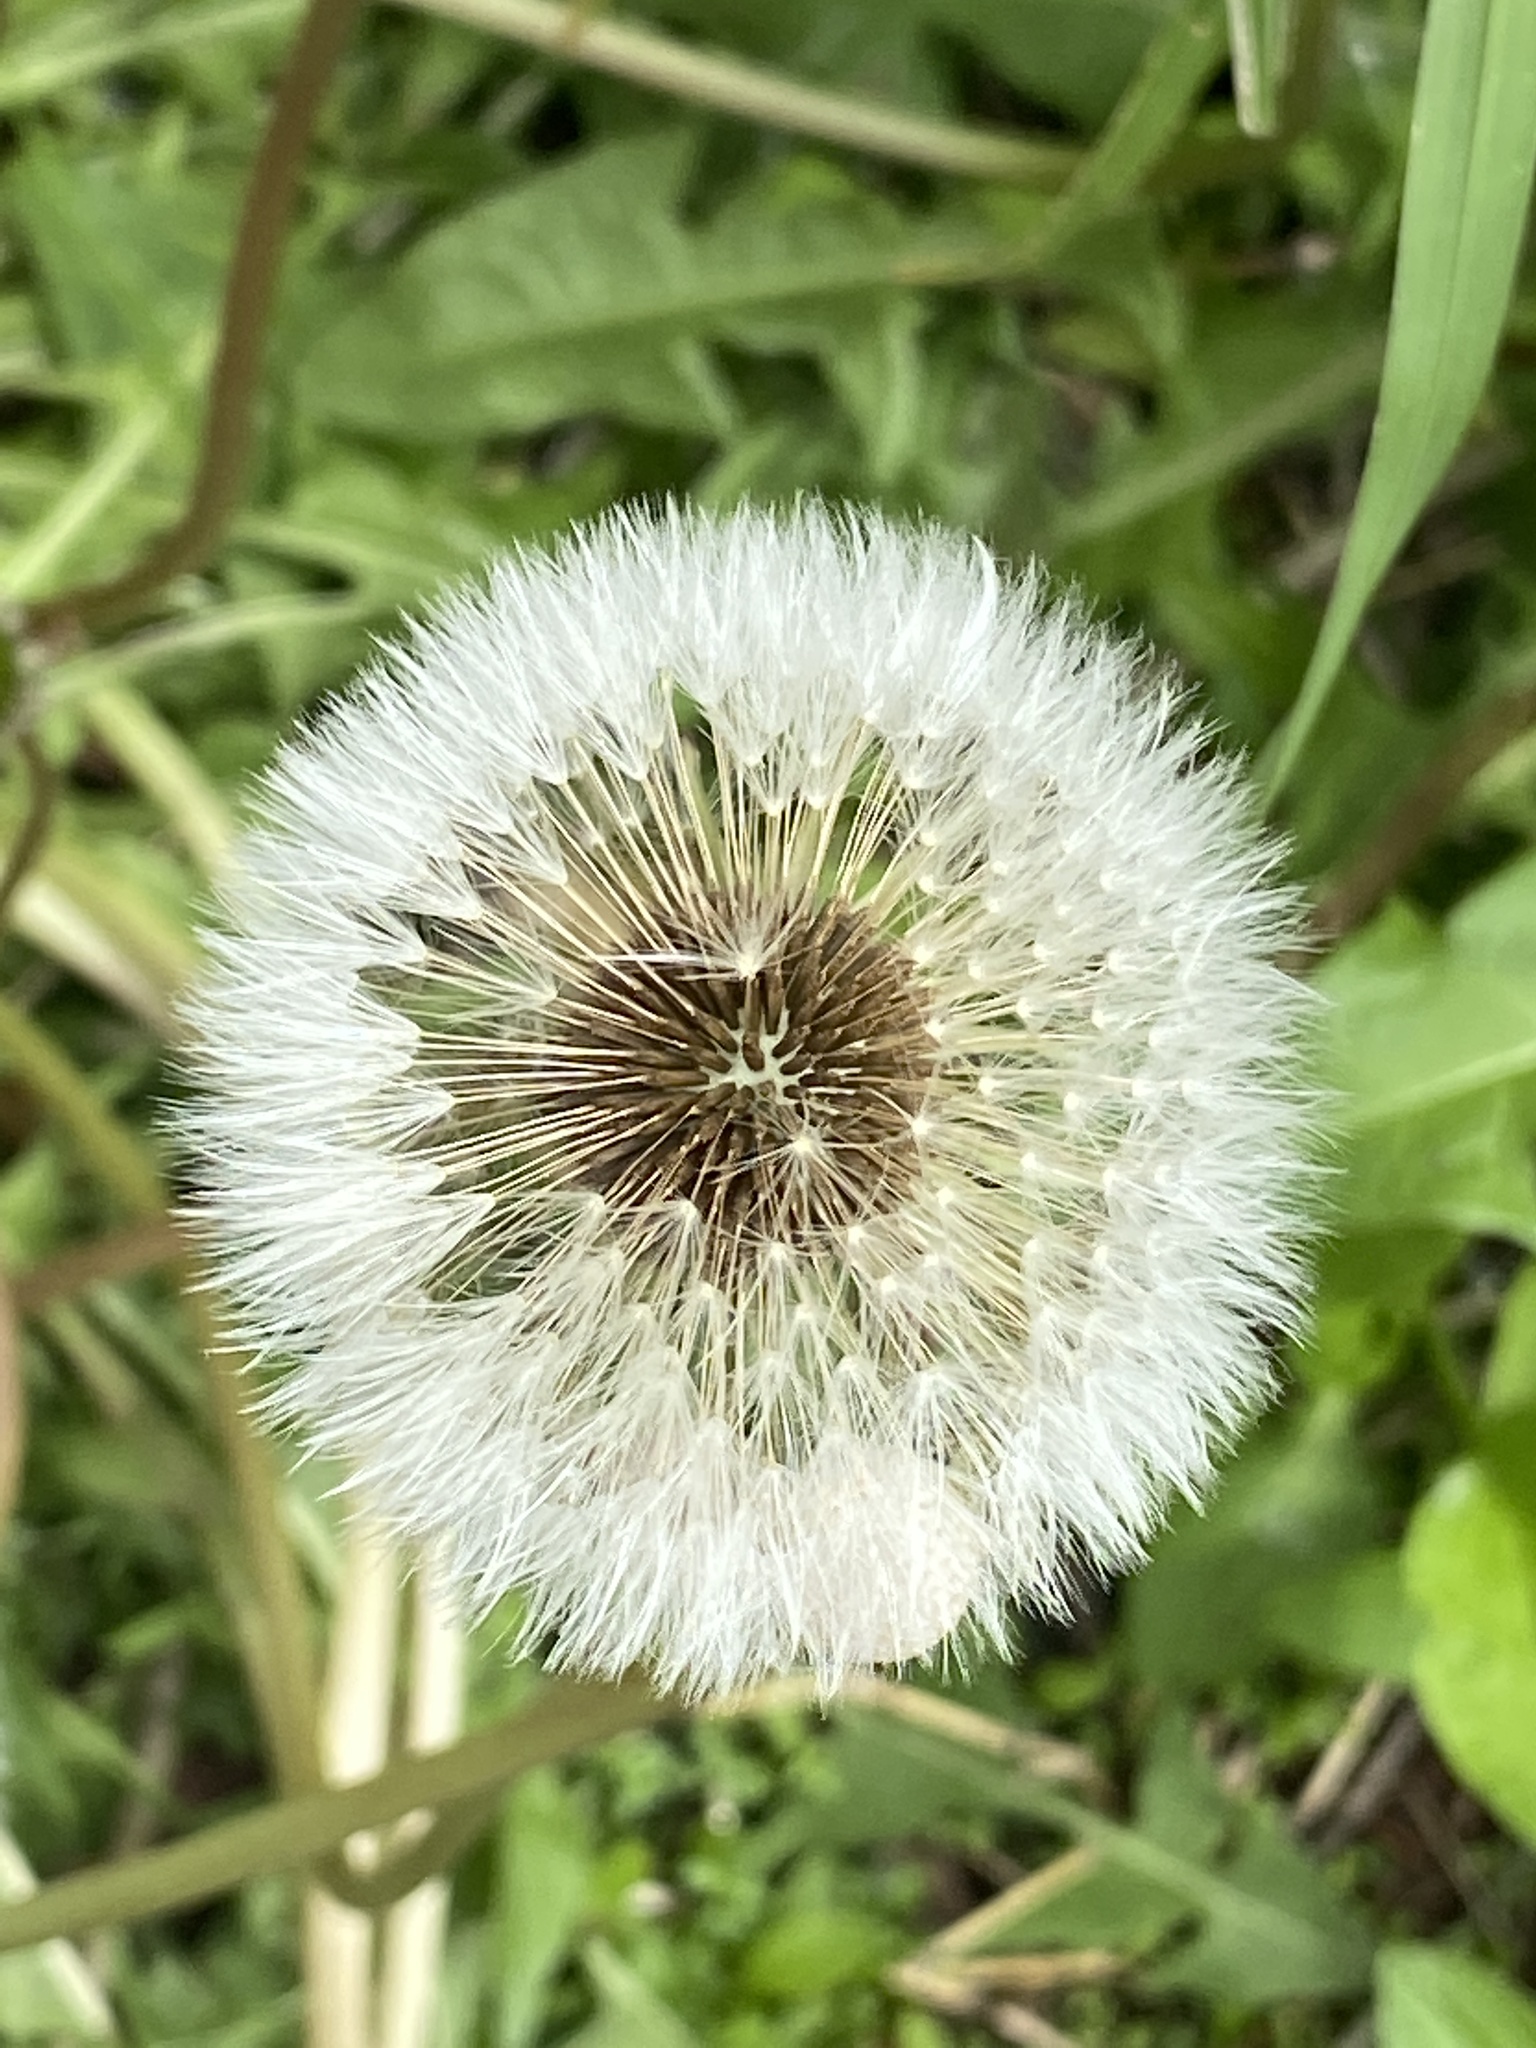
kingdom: Plantae
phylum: Tracheophyta
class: Magnoliopsida
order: Asterales
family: Asteraceae
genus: Taraxacum
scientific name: Taraxacum officinale
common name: Common dandelion
